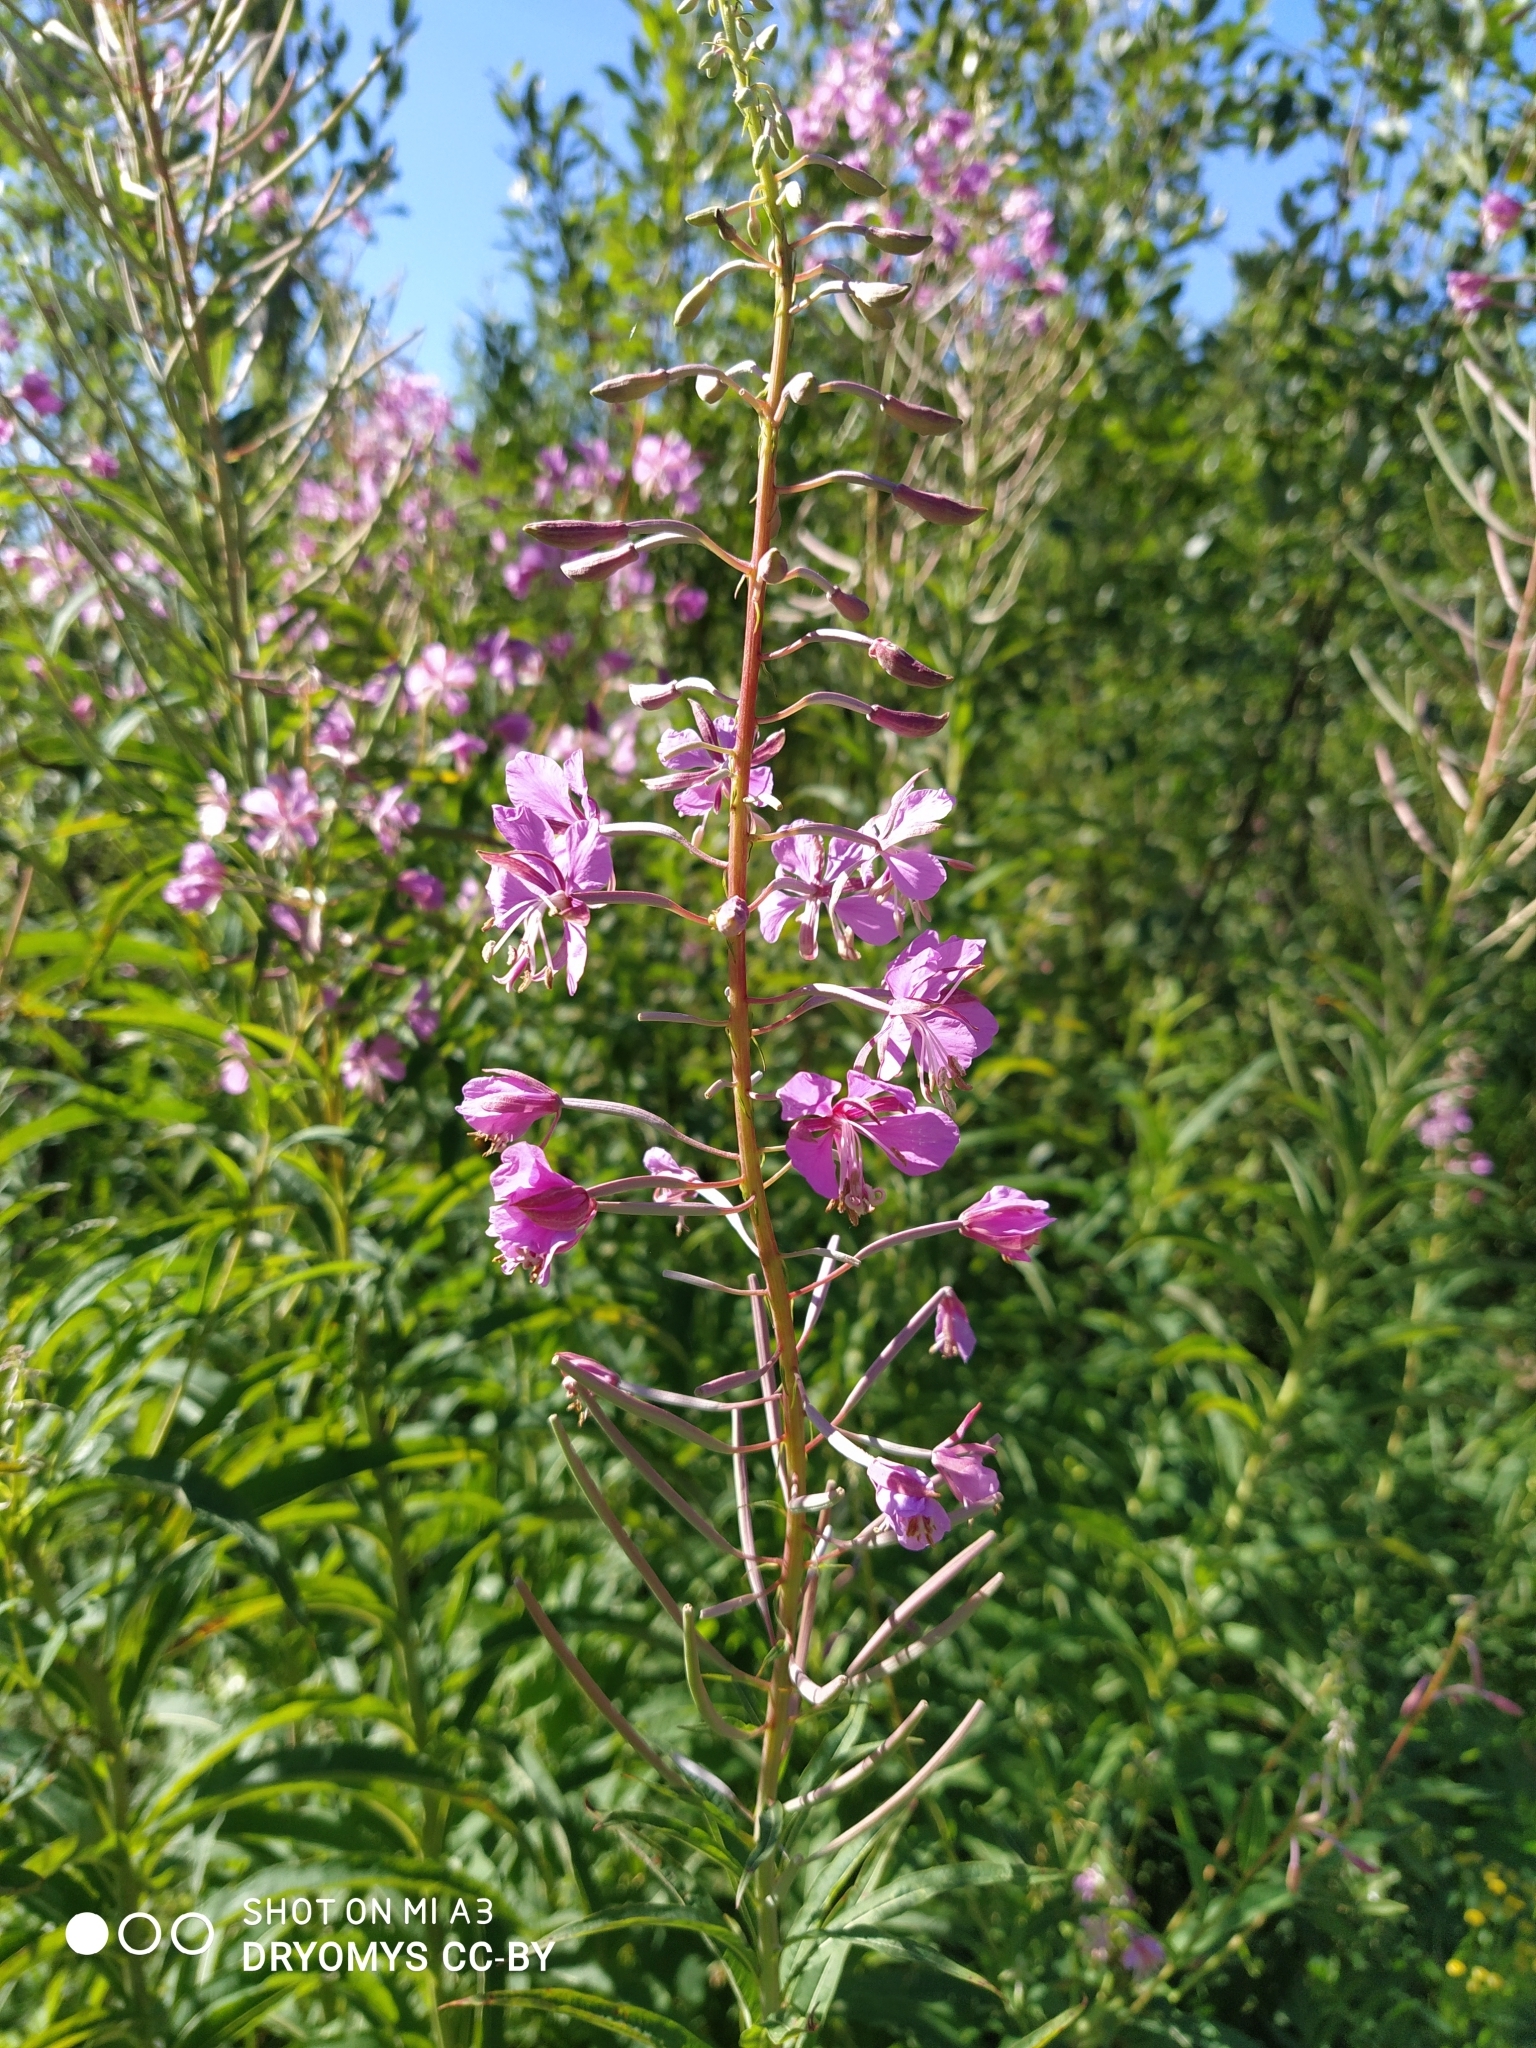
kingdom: Plantae
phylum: Tracheophyta
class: Magnoliopsida
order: Myrtales
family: Onagraceae
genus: Chamaenerion
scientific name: Chamaenerion angustifolium
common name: Fireweed
